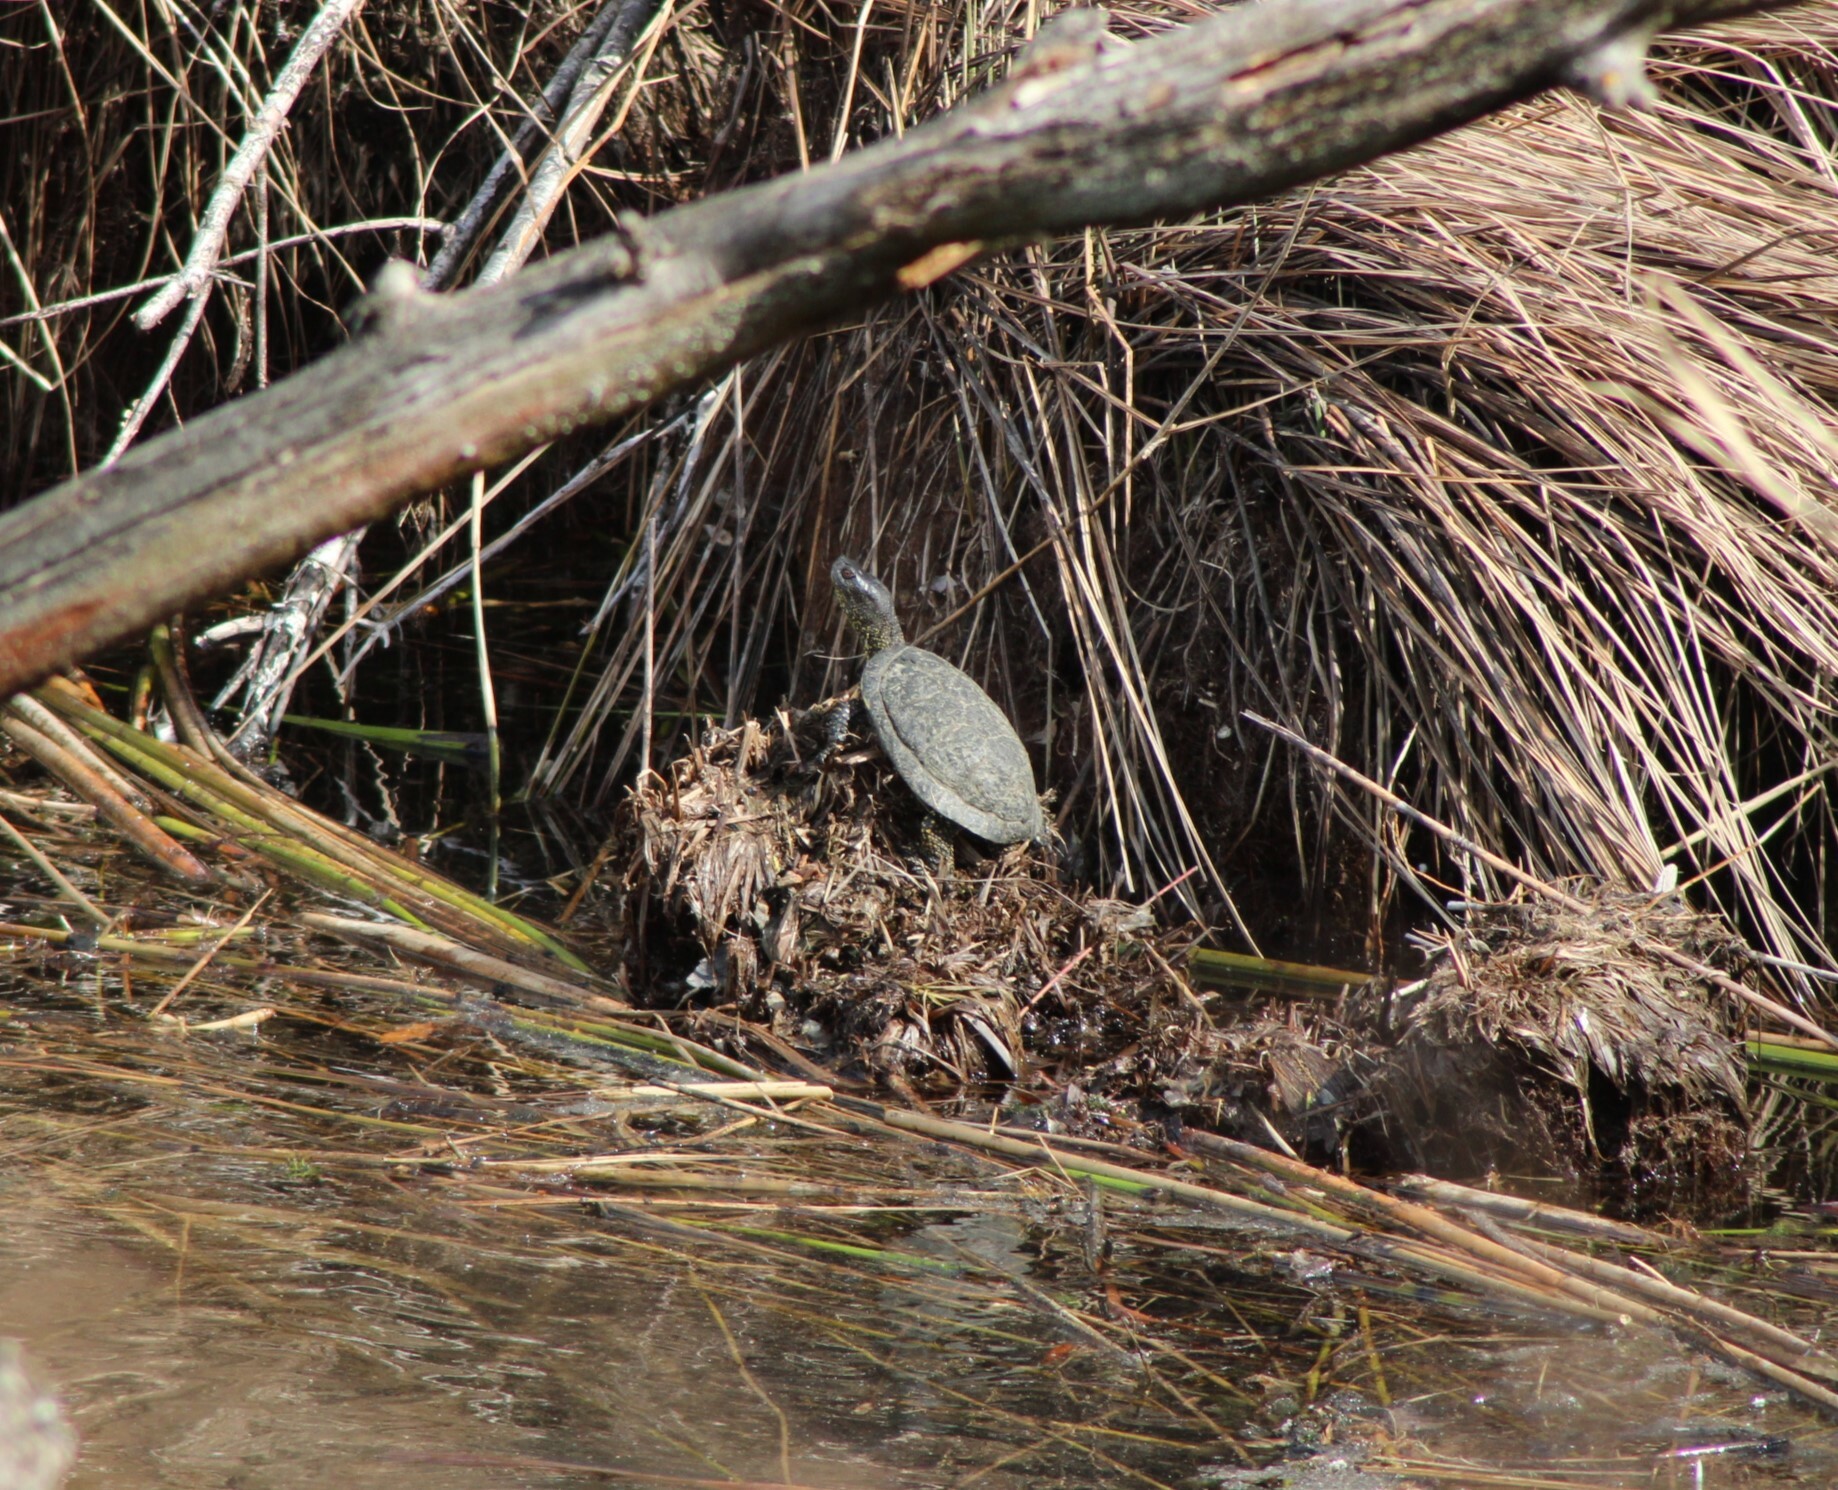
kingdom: Animalia
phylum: Chordata
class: Testudines
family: Emydidae
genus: Emys
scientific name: Emys orbicularis
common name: European pond turtle
